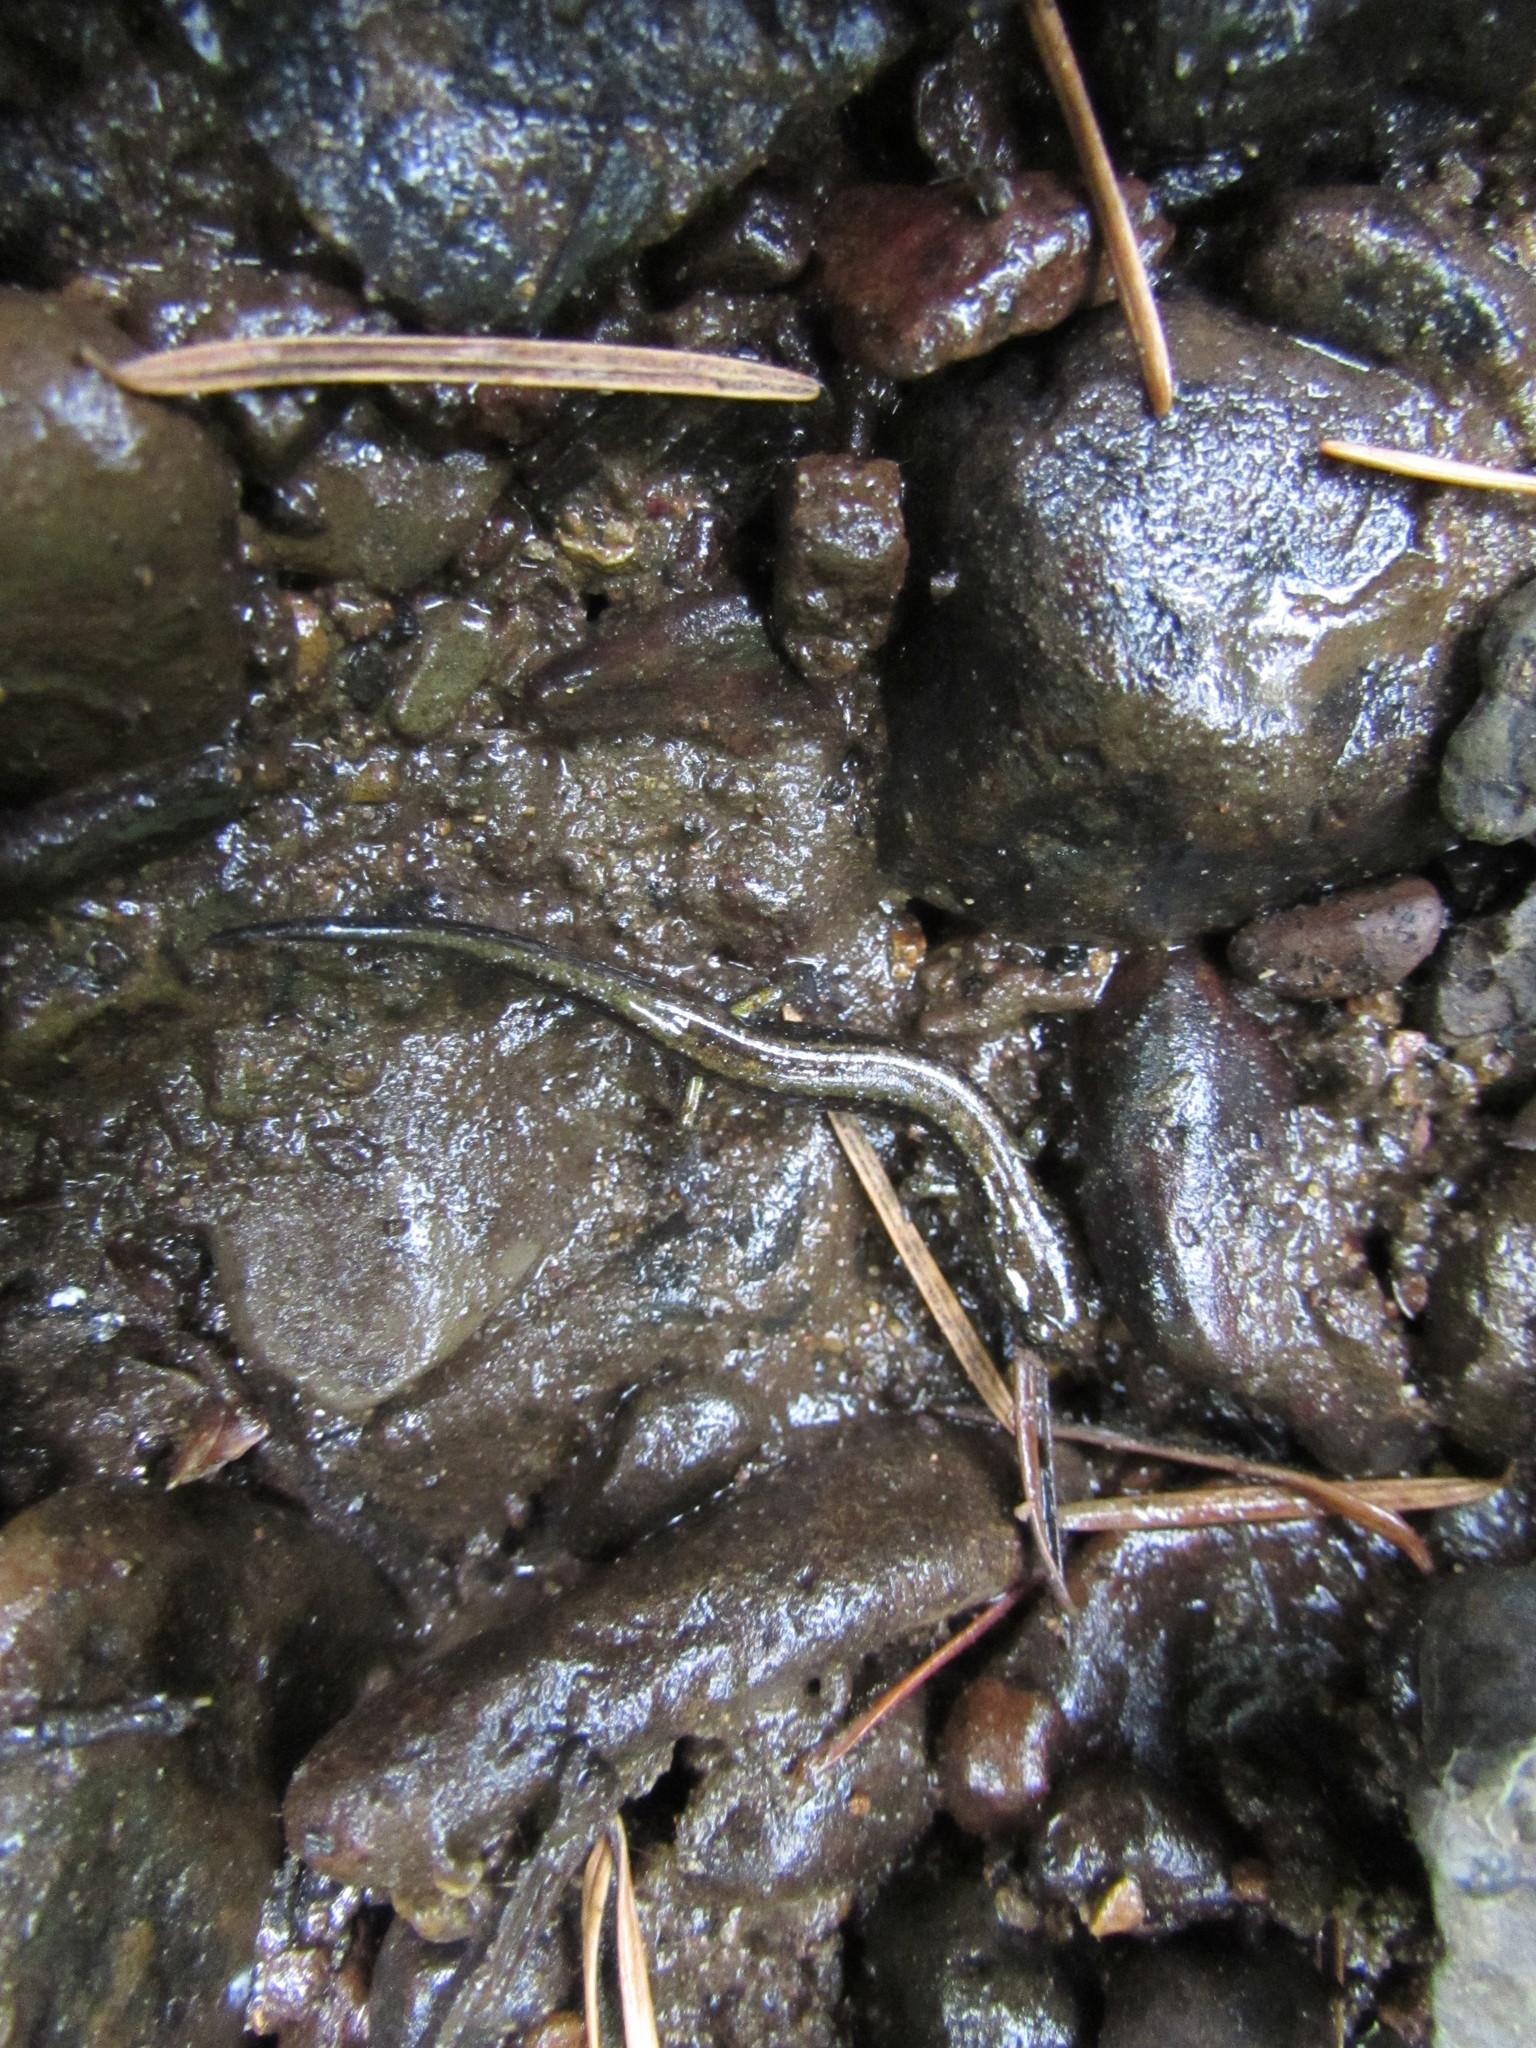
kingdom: Animalia
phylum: Chordata
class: Amphibia
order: Caudata
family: Plethodontidae
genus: Plethodon
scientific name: Plethodon dunni
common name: Dunn's salamander
